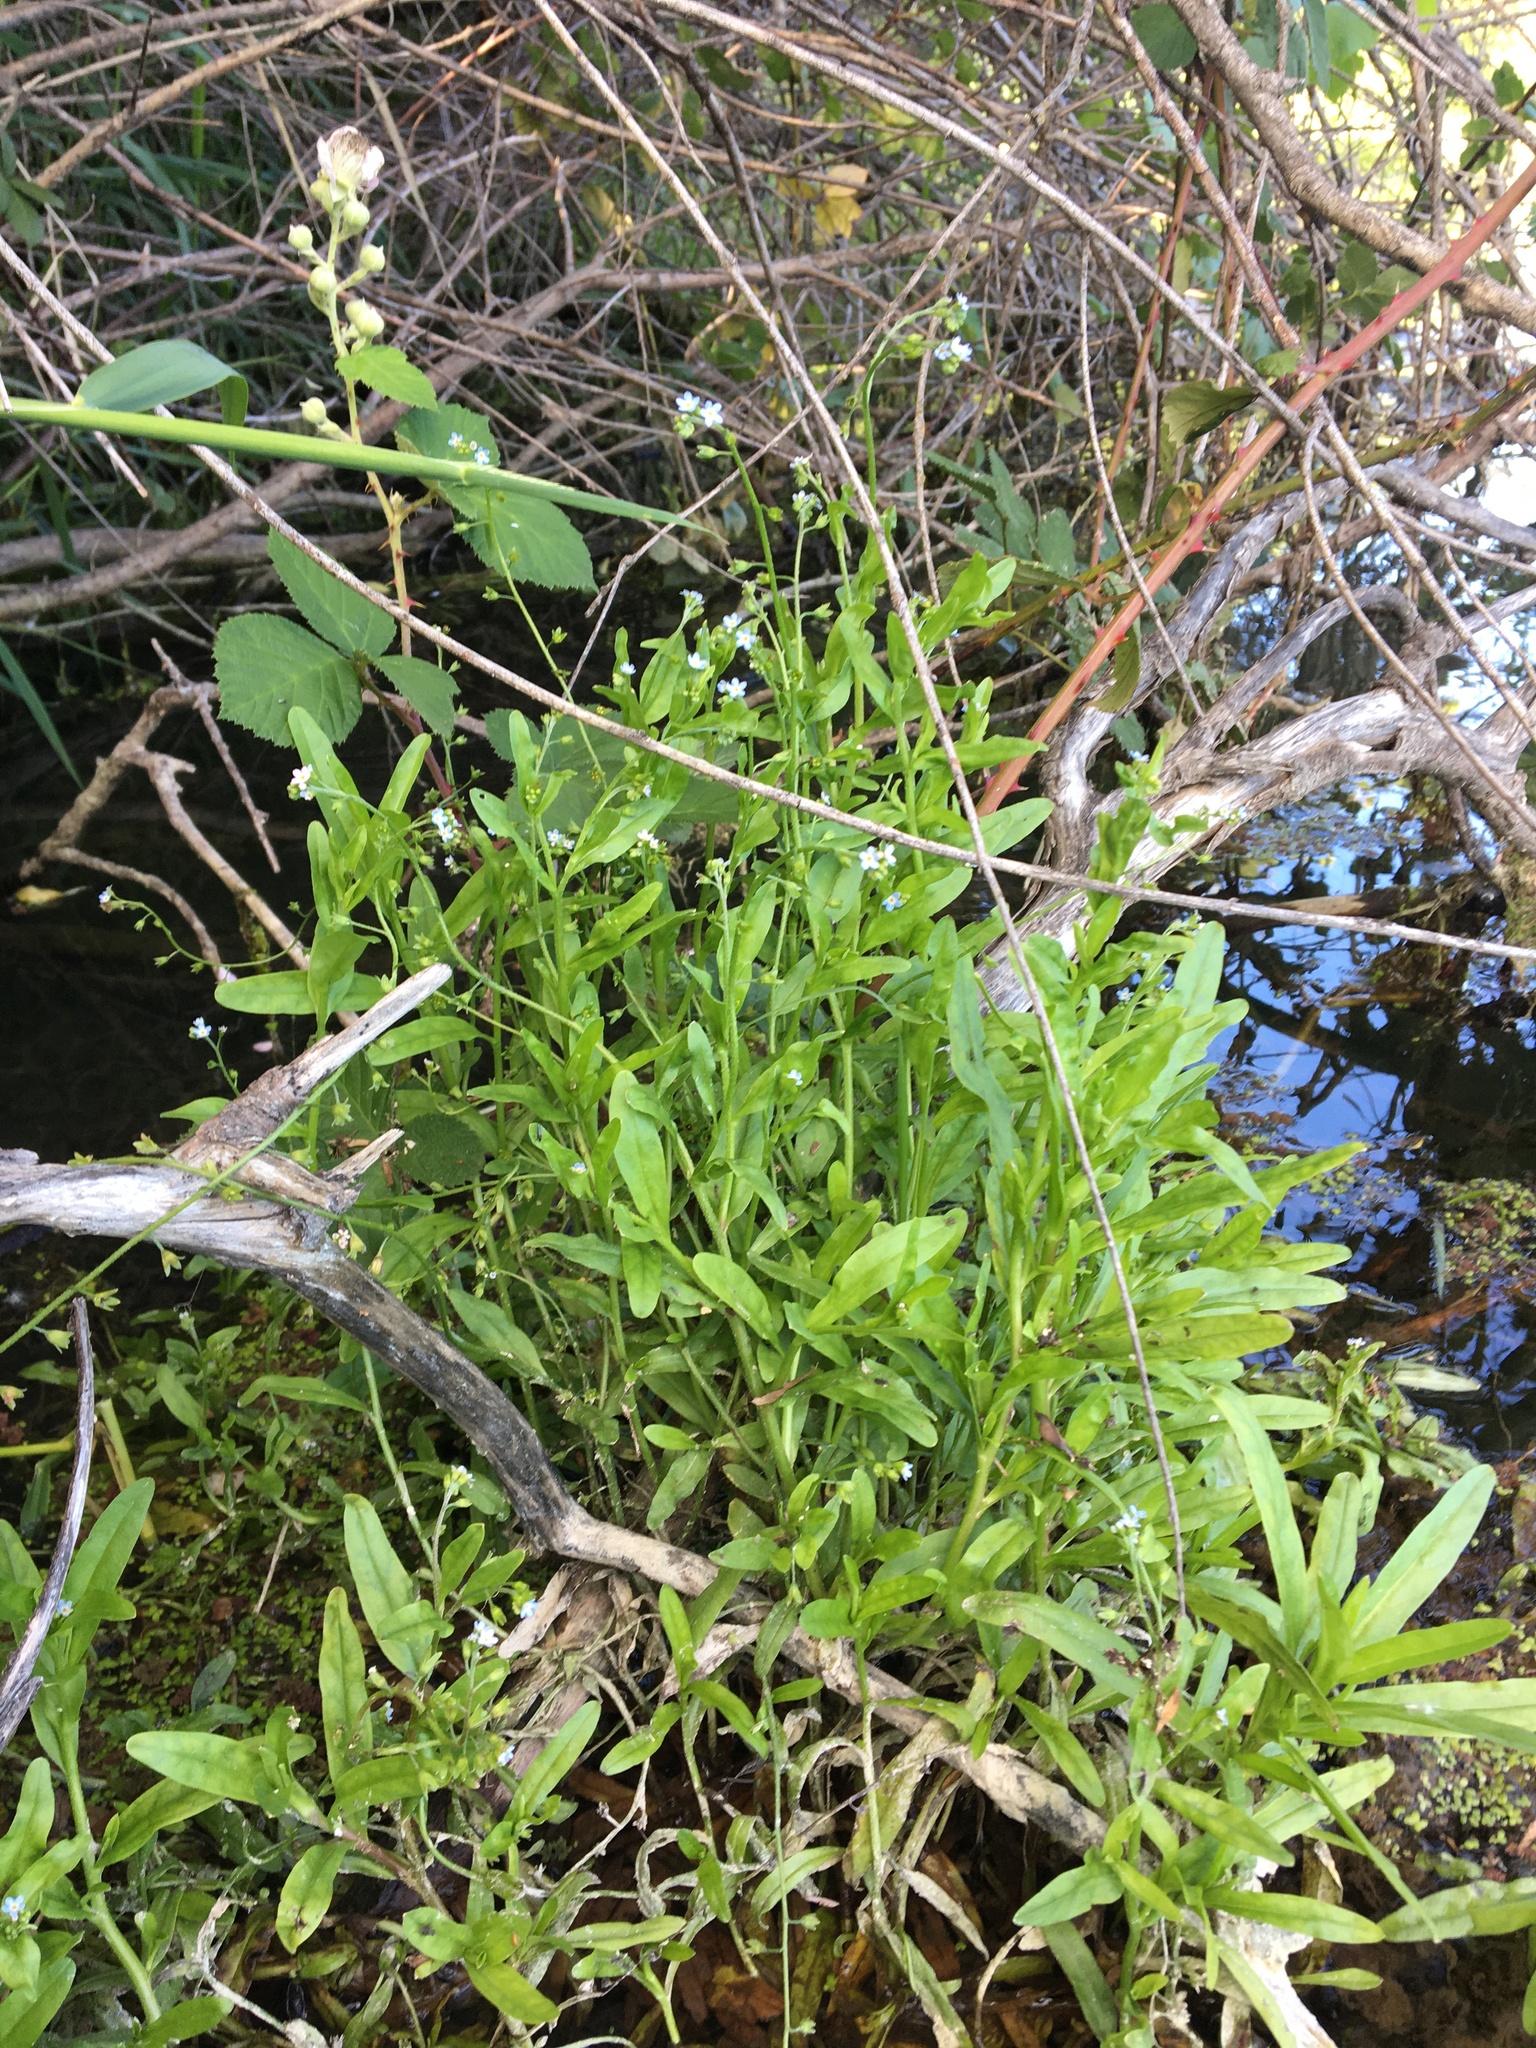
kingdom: Plantae
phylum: Tracheophyta
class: Magnoliopsida
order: Boraginales
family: Boraginaceae
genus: Myosotis
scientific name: Myosotis laxa
